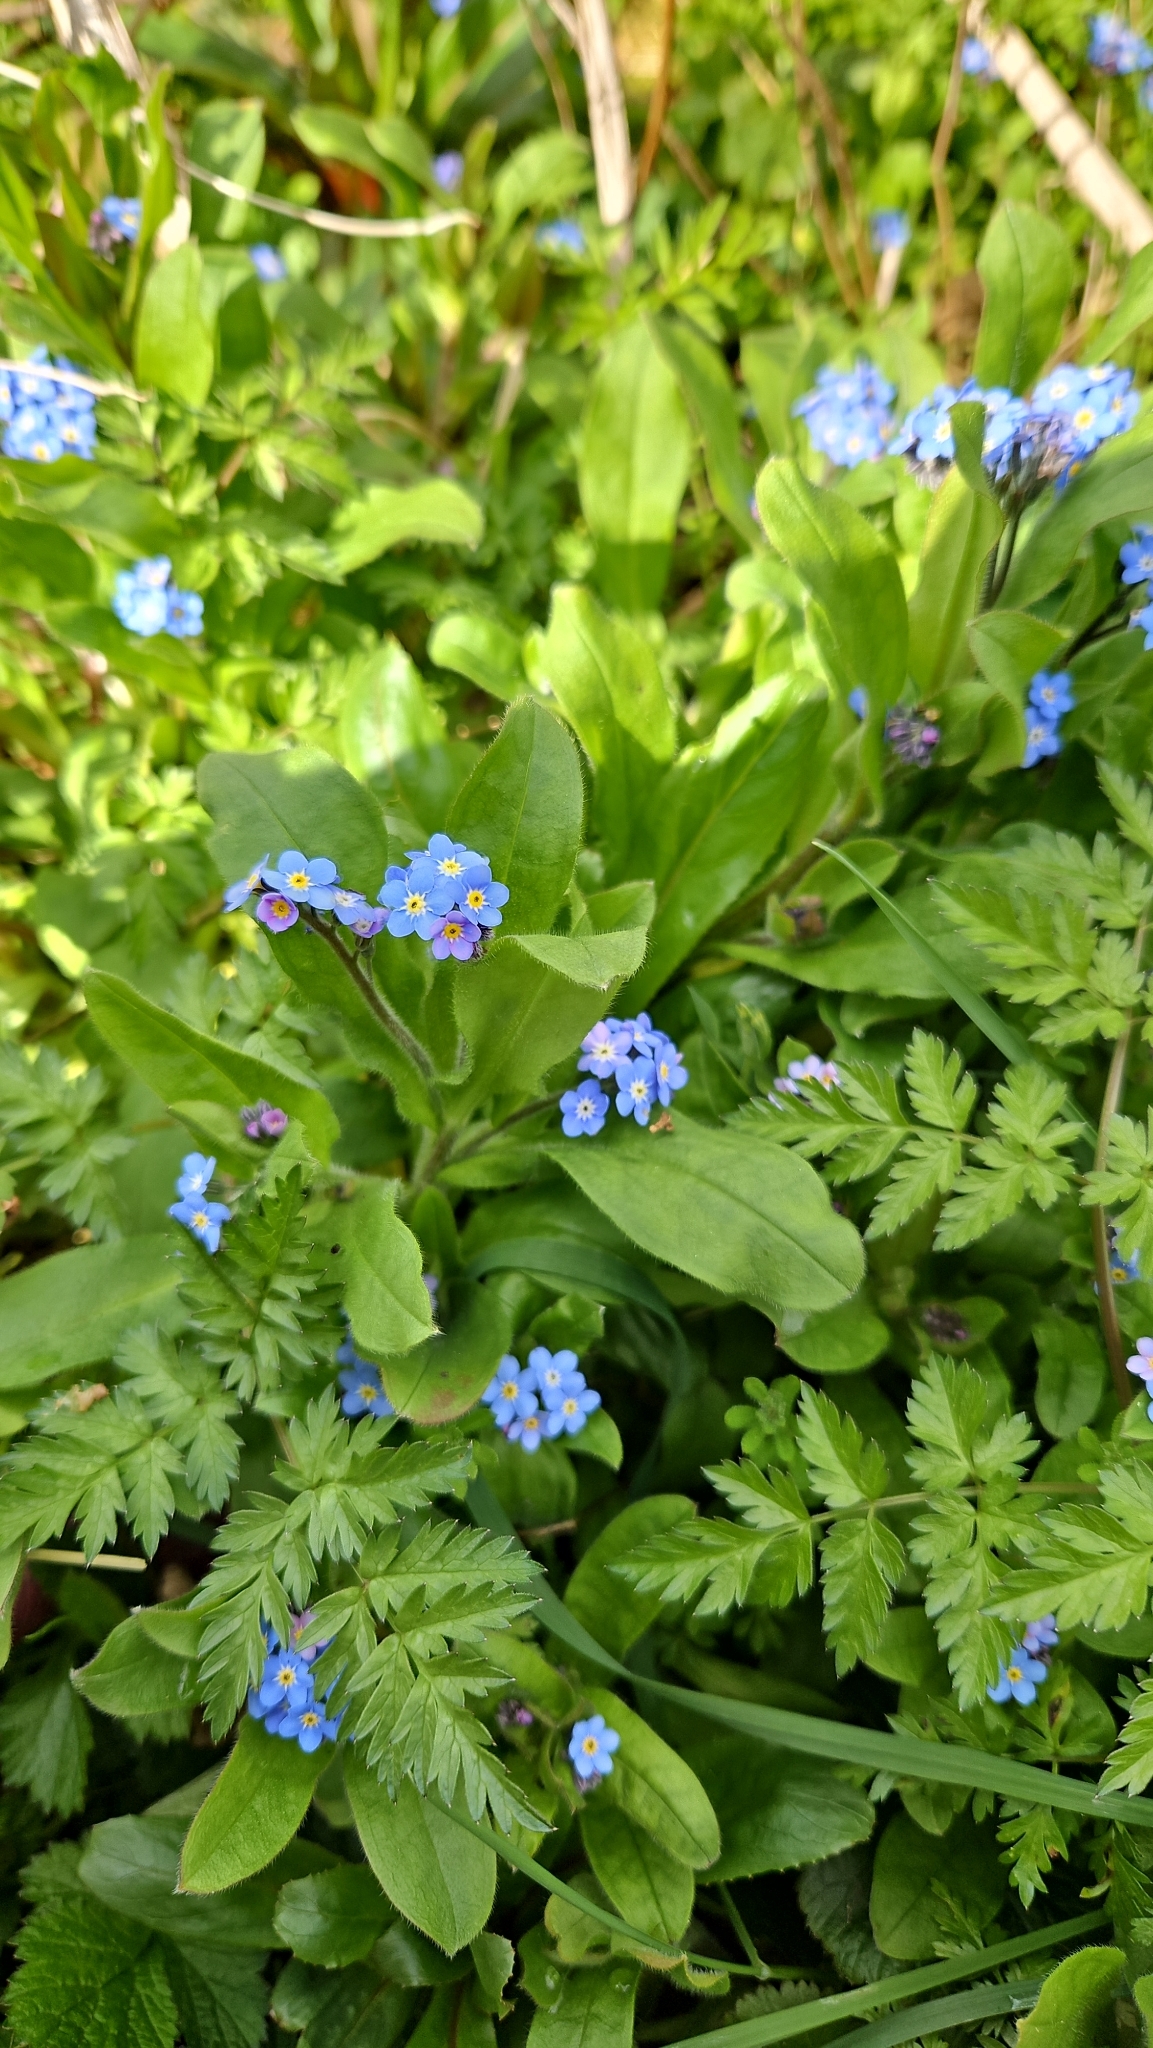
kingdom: Plantae
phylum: Tracheophyta
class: Magnoliopsida
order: Boraginales
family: Boraginaceae
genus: Myosotis
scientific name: Myosotis sylvatica
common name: Wood forget-me-not
